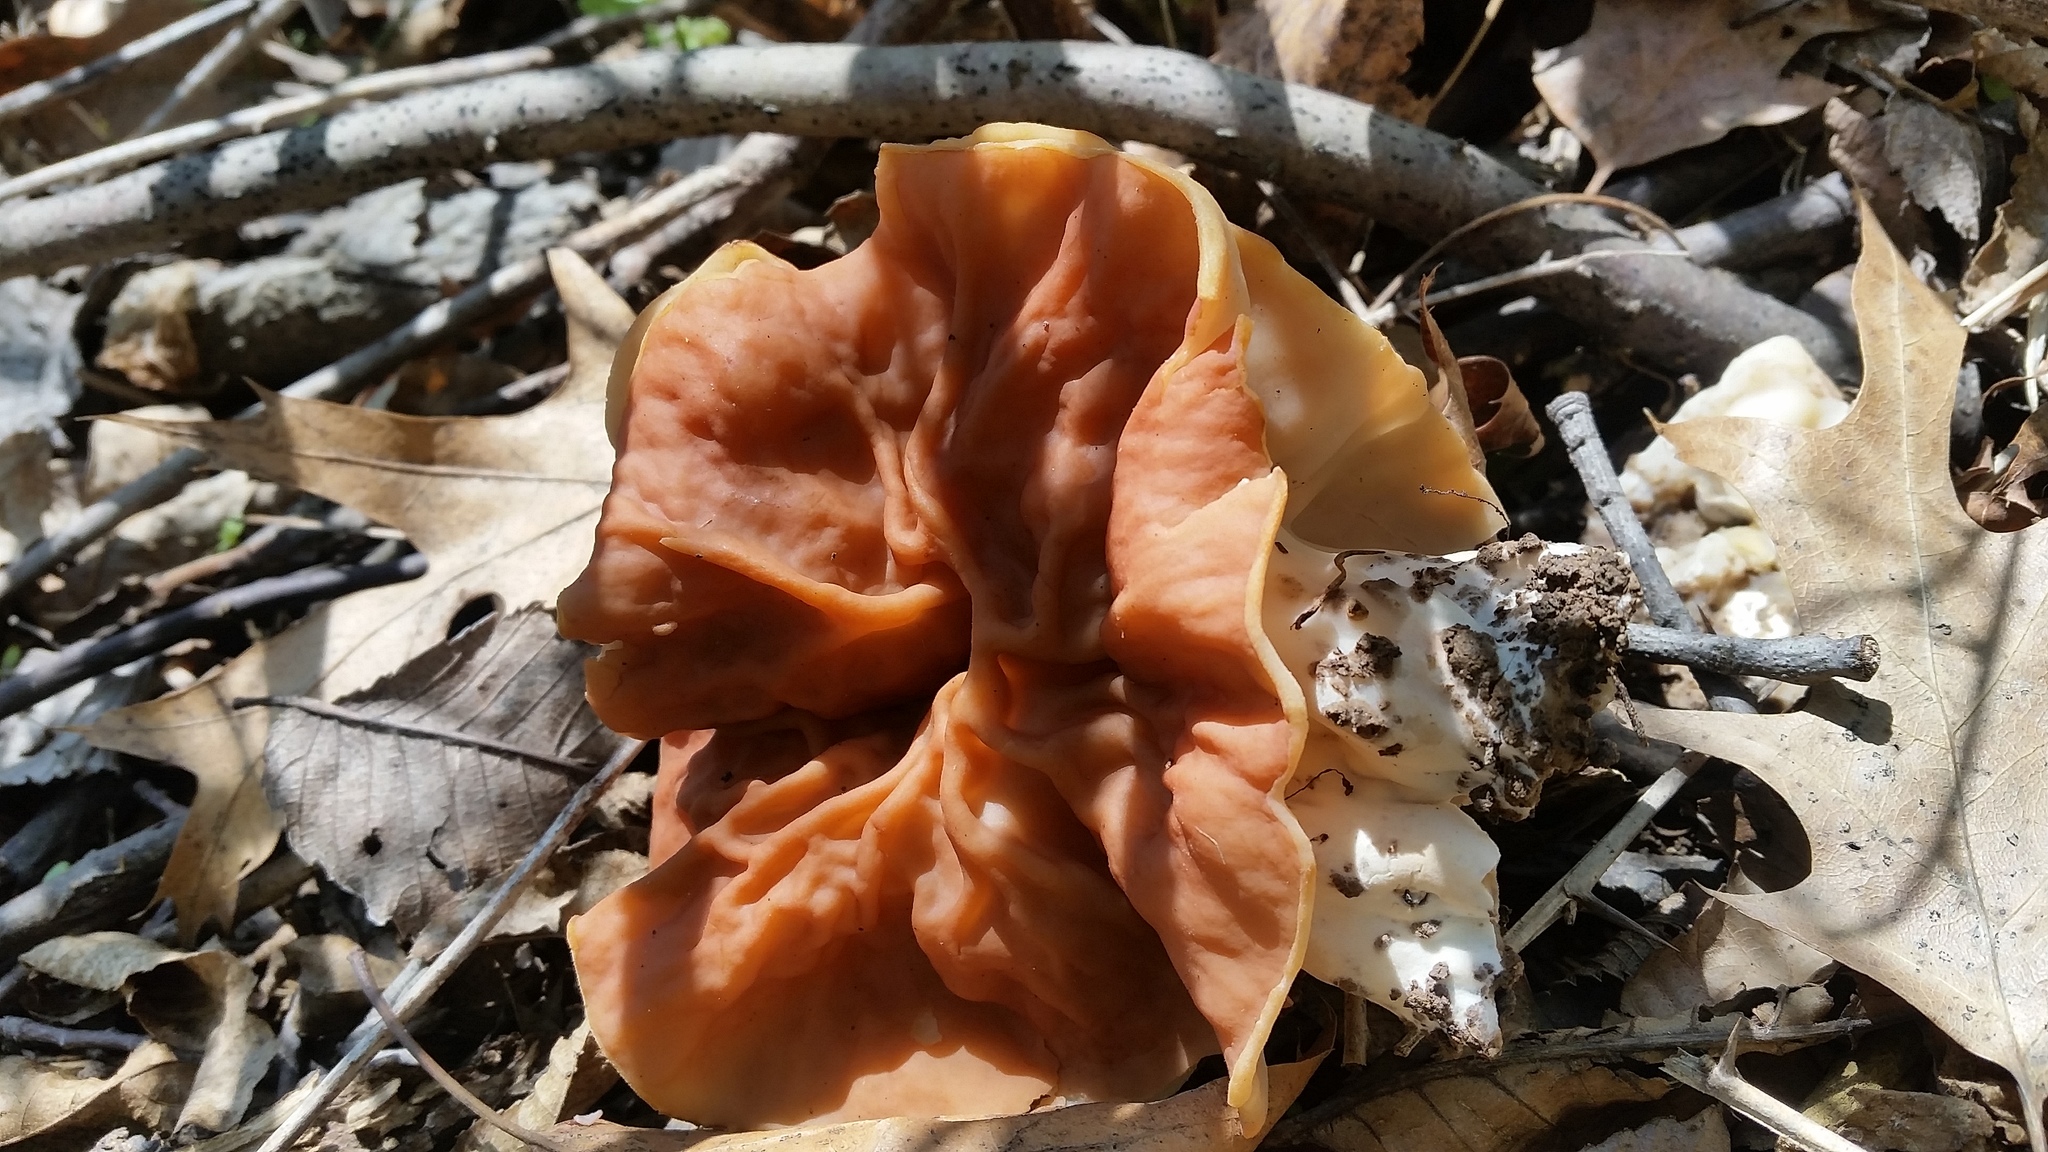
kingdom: Fungi
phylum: Ascomycota
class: Pezizomycetes
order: Pezizales
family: Discinaceae
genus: Discina
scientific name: Discina brunnea
